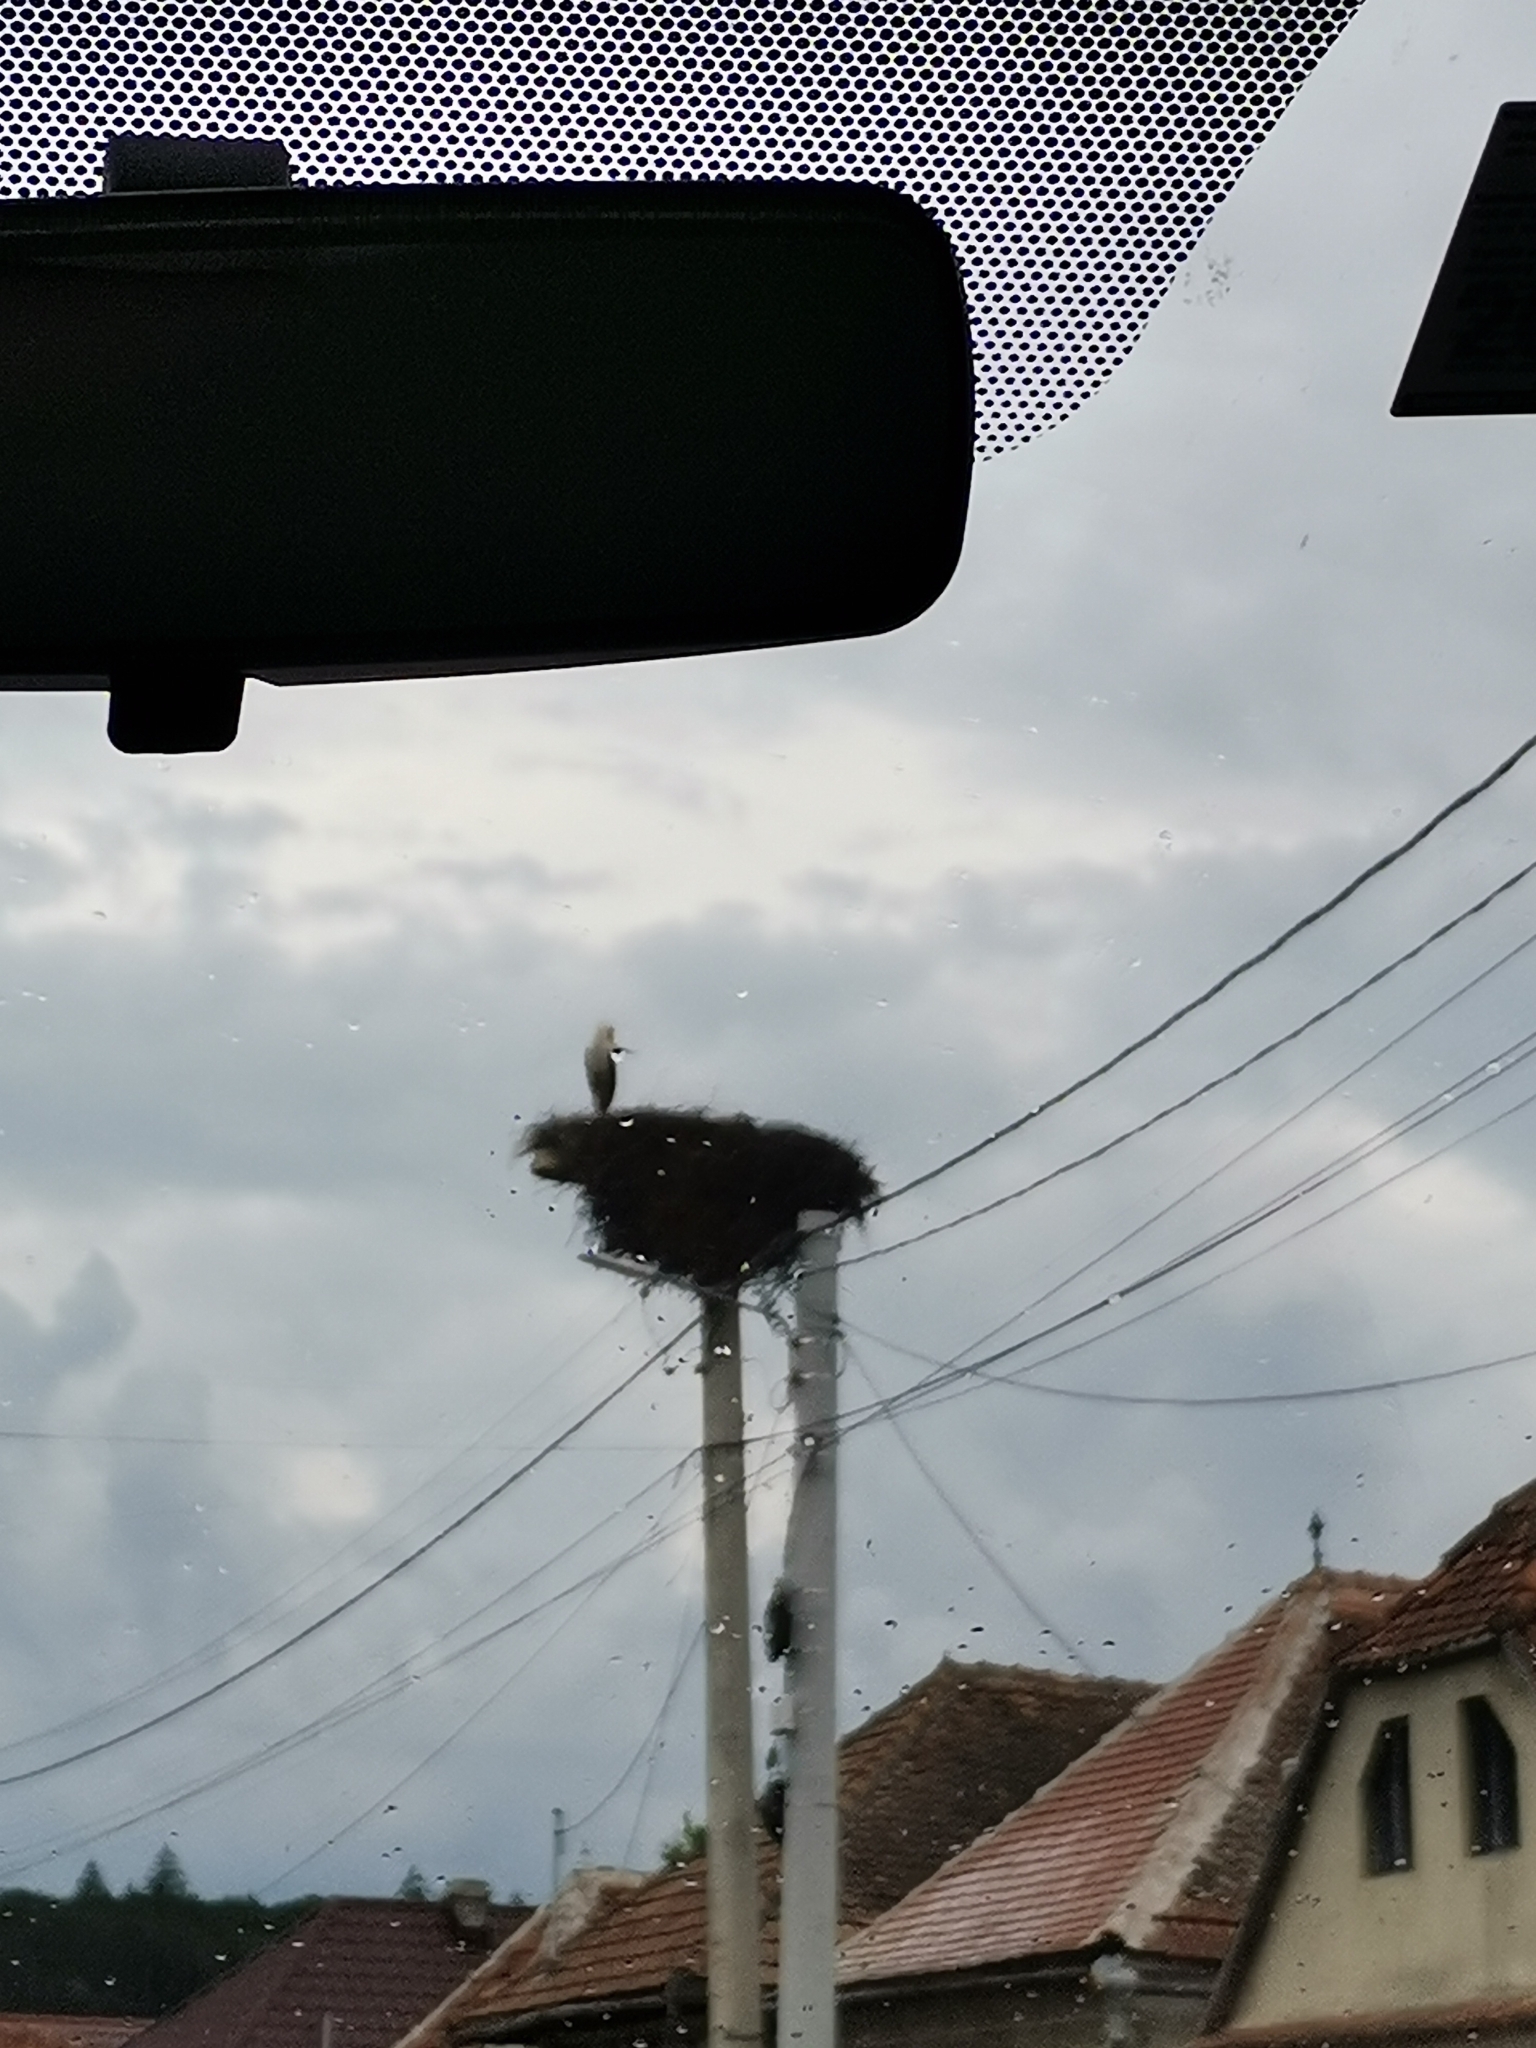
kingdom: Animalia
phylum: Chordata
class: Aves
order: Ciconiiformes
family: Ciconiidae
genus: Ciconia
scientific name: Ciconia ciconia
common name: White stork
